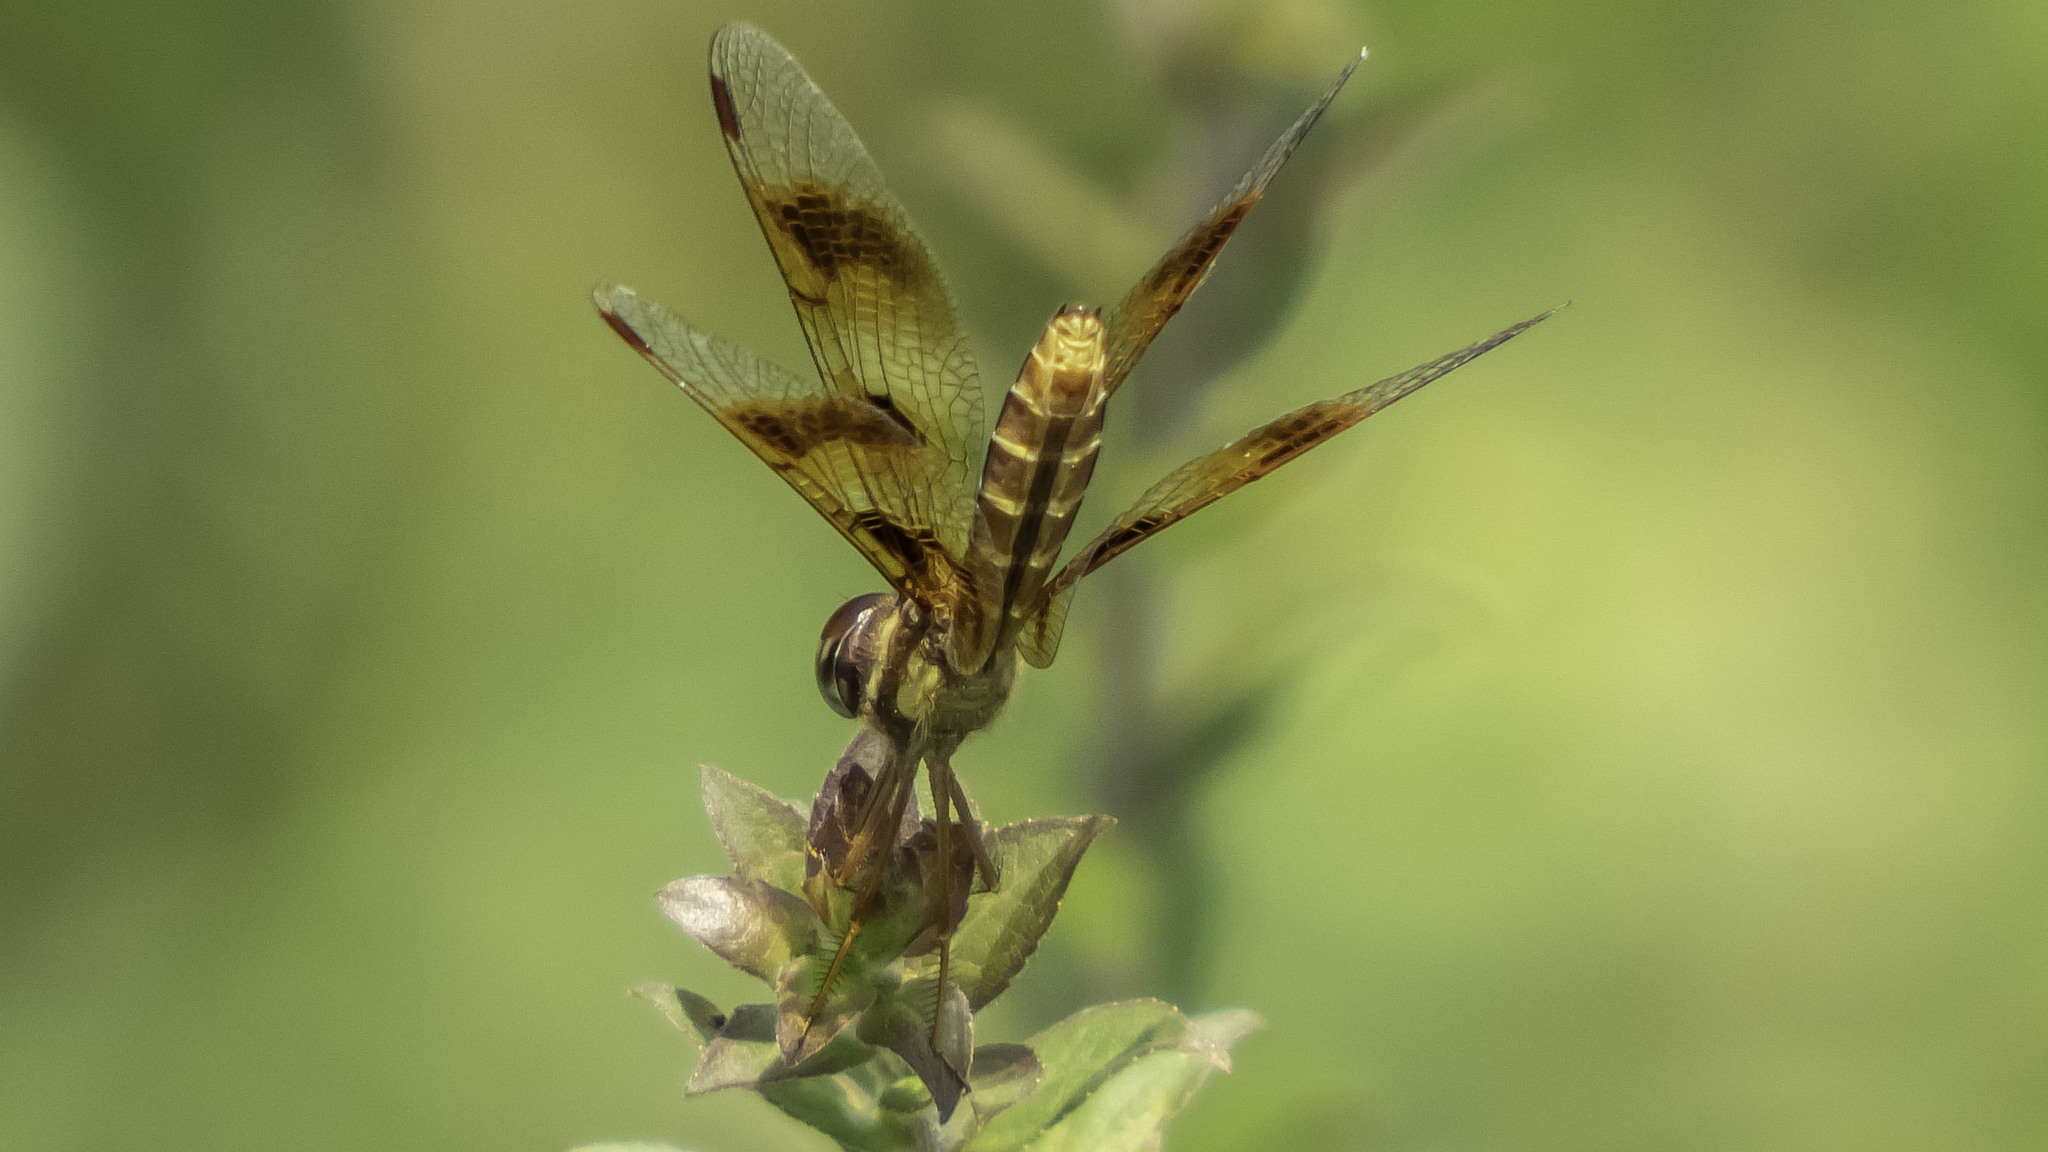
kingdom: Animalia
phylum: Arthropoda
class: Insecta
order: Odonata
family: Libellulidae
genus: Perithemis
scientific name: Perithemis tenera
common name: Eastern amberwing
